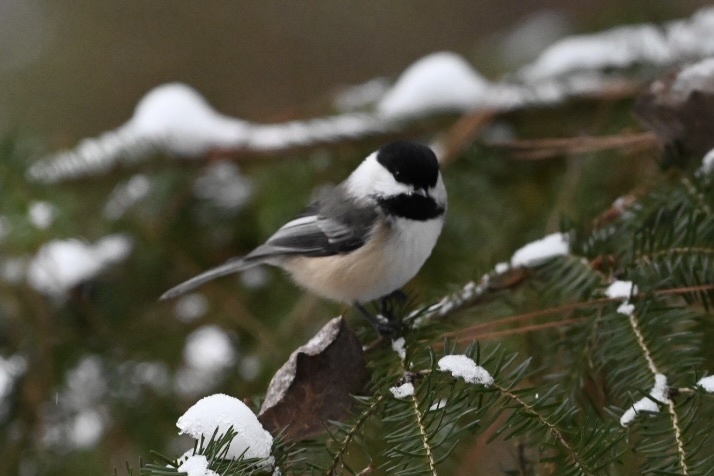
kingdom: Animalia
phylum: Chordata
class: Aves
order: Passeriformes
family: Paridae
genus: Poecile
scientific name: Poecile atricapillus
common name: Black-capped chickadee
